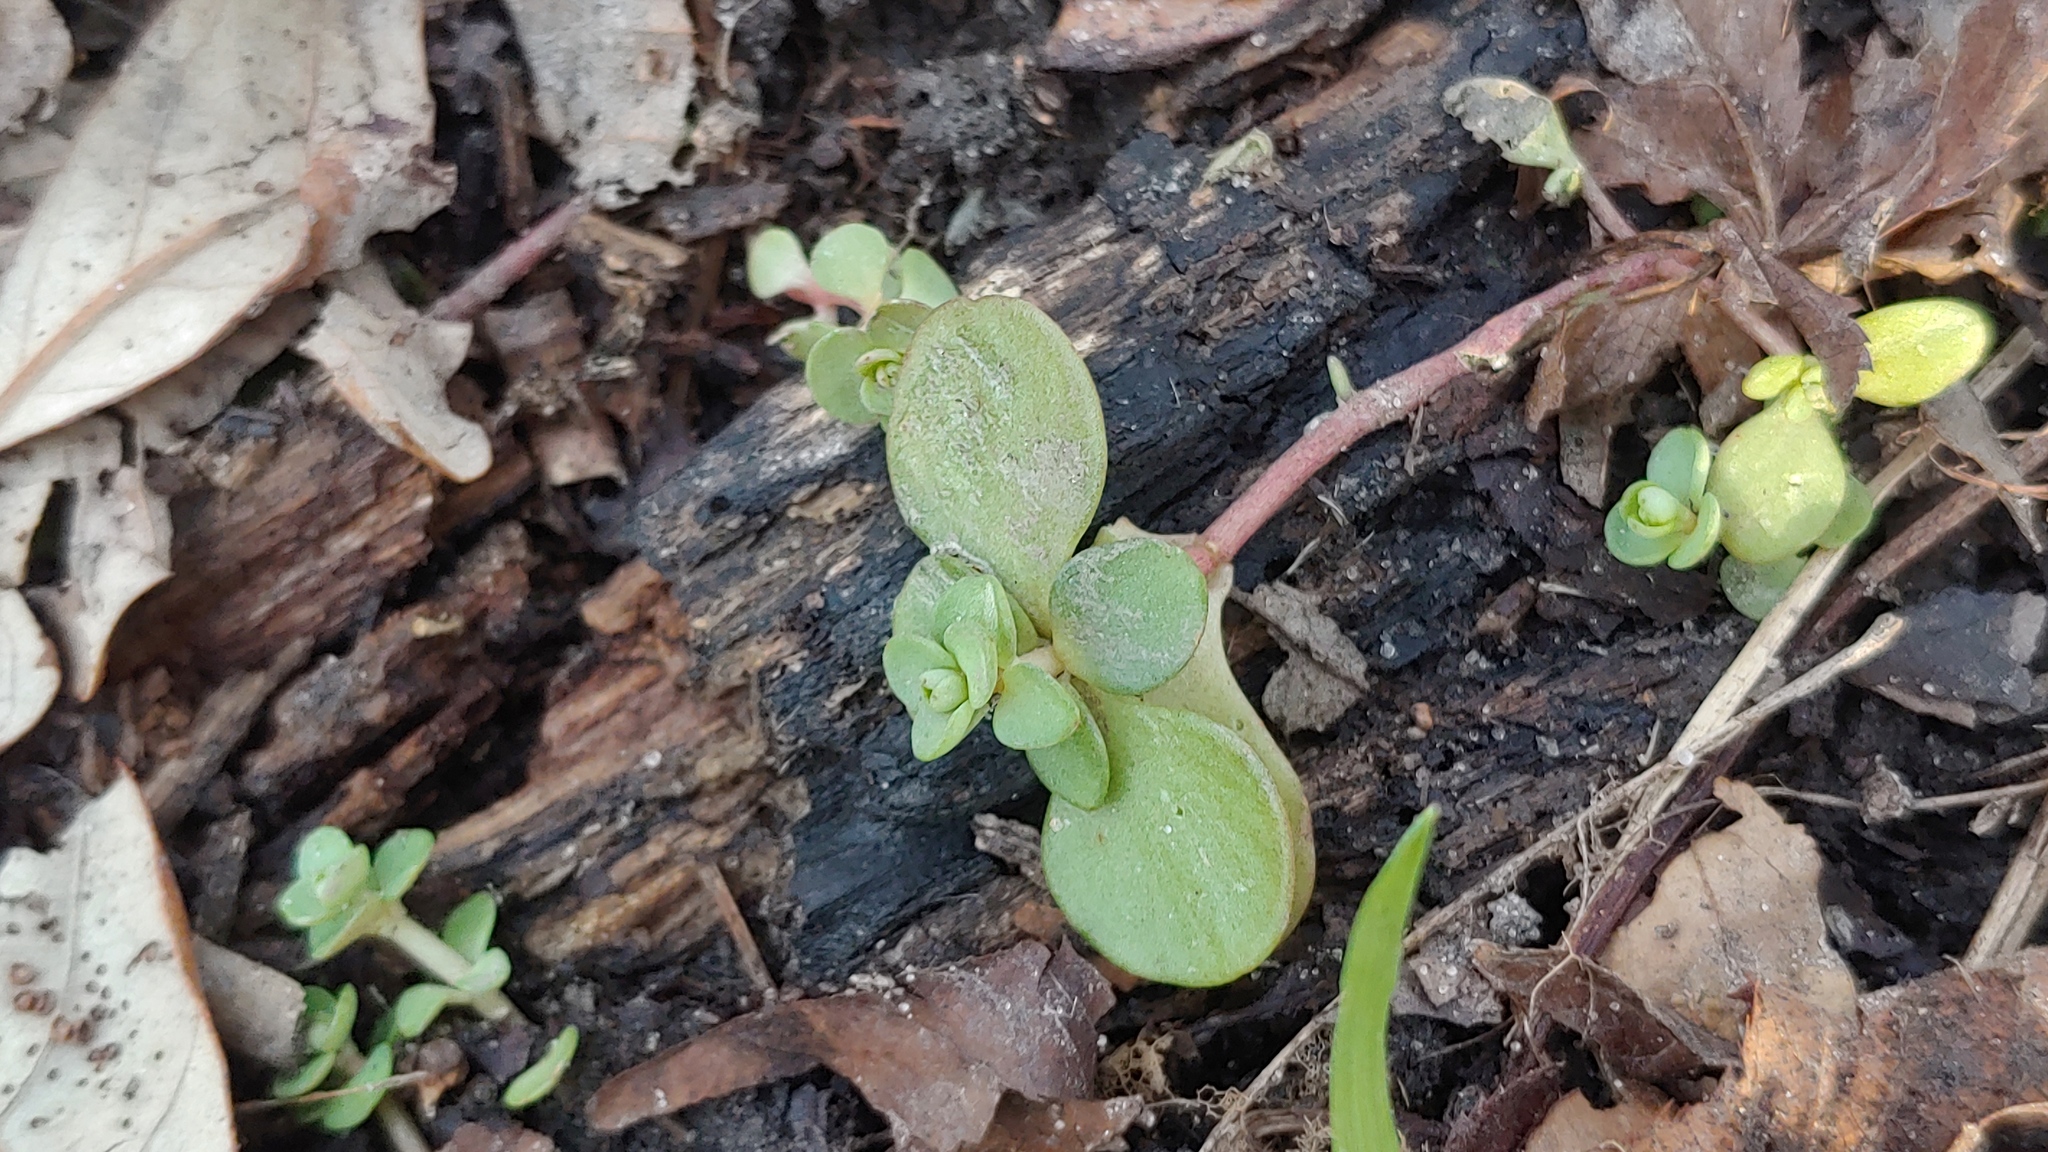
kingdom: Plantae
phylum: Tracheophyta
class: Magnoliopsida
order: Saxifragales
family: Crassulaceae
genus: Sedum
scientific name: Sedum ternatum
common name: Wild stonecrop
